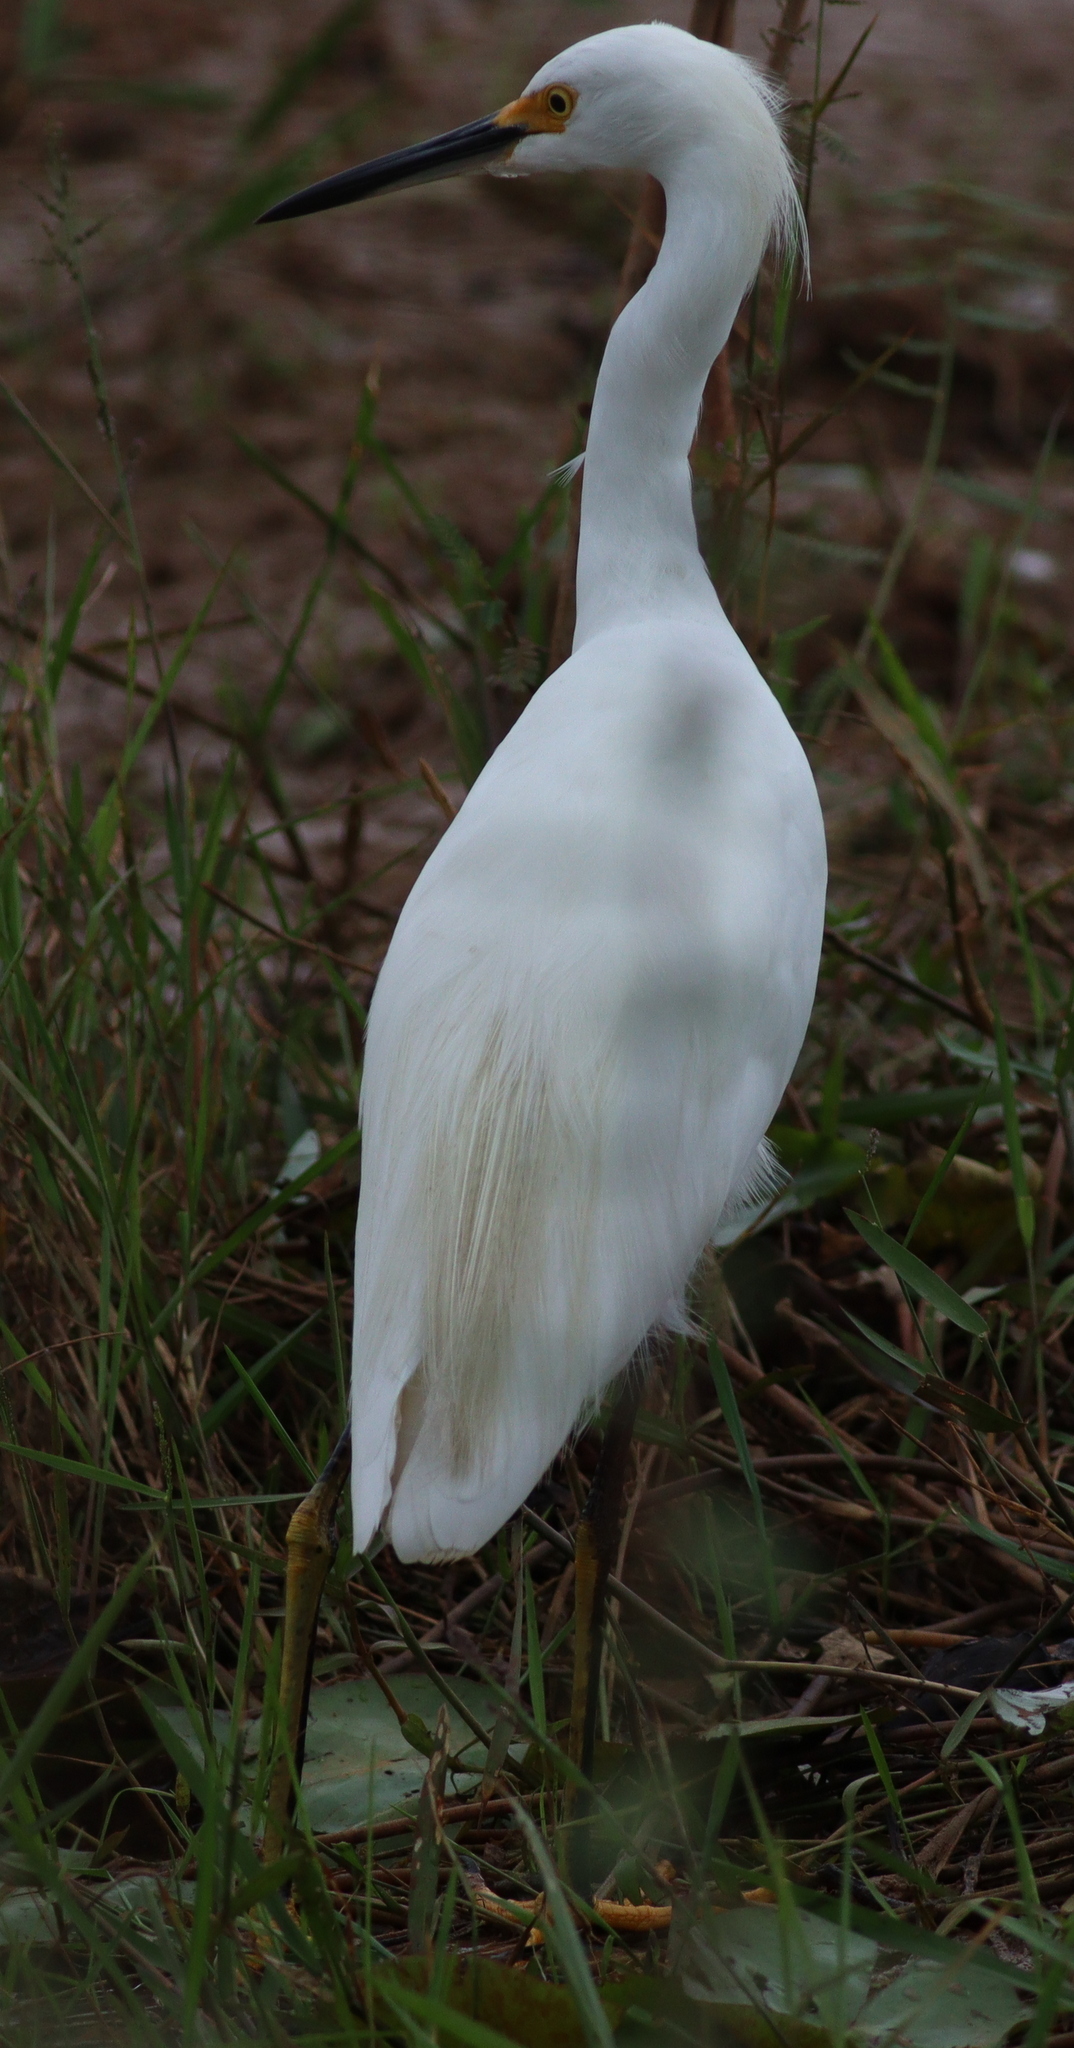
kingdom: Animalia
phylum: Chordata
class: Aves
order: Pelecaniformes
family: Ardeidae
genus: Egretta
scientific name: Egretta thula
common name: Snowy egret
